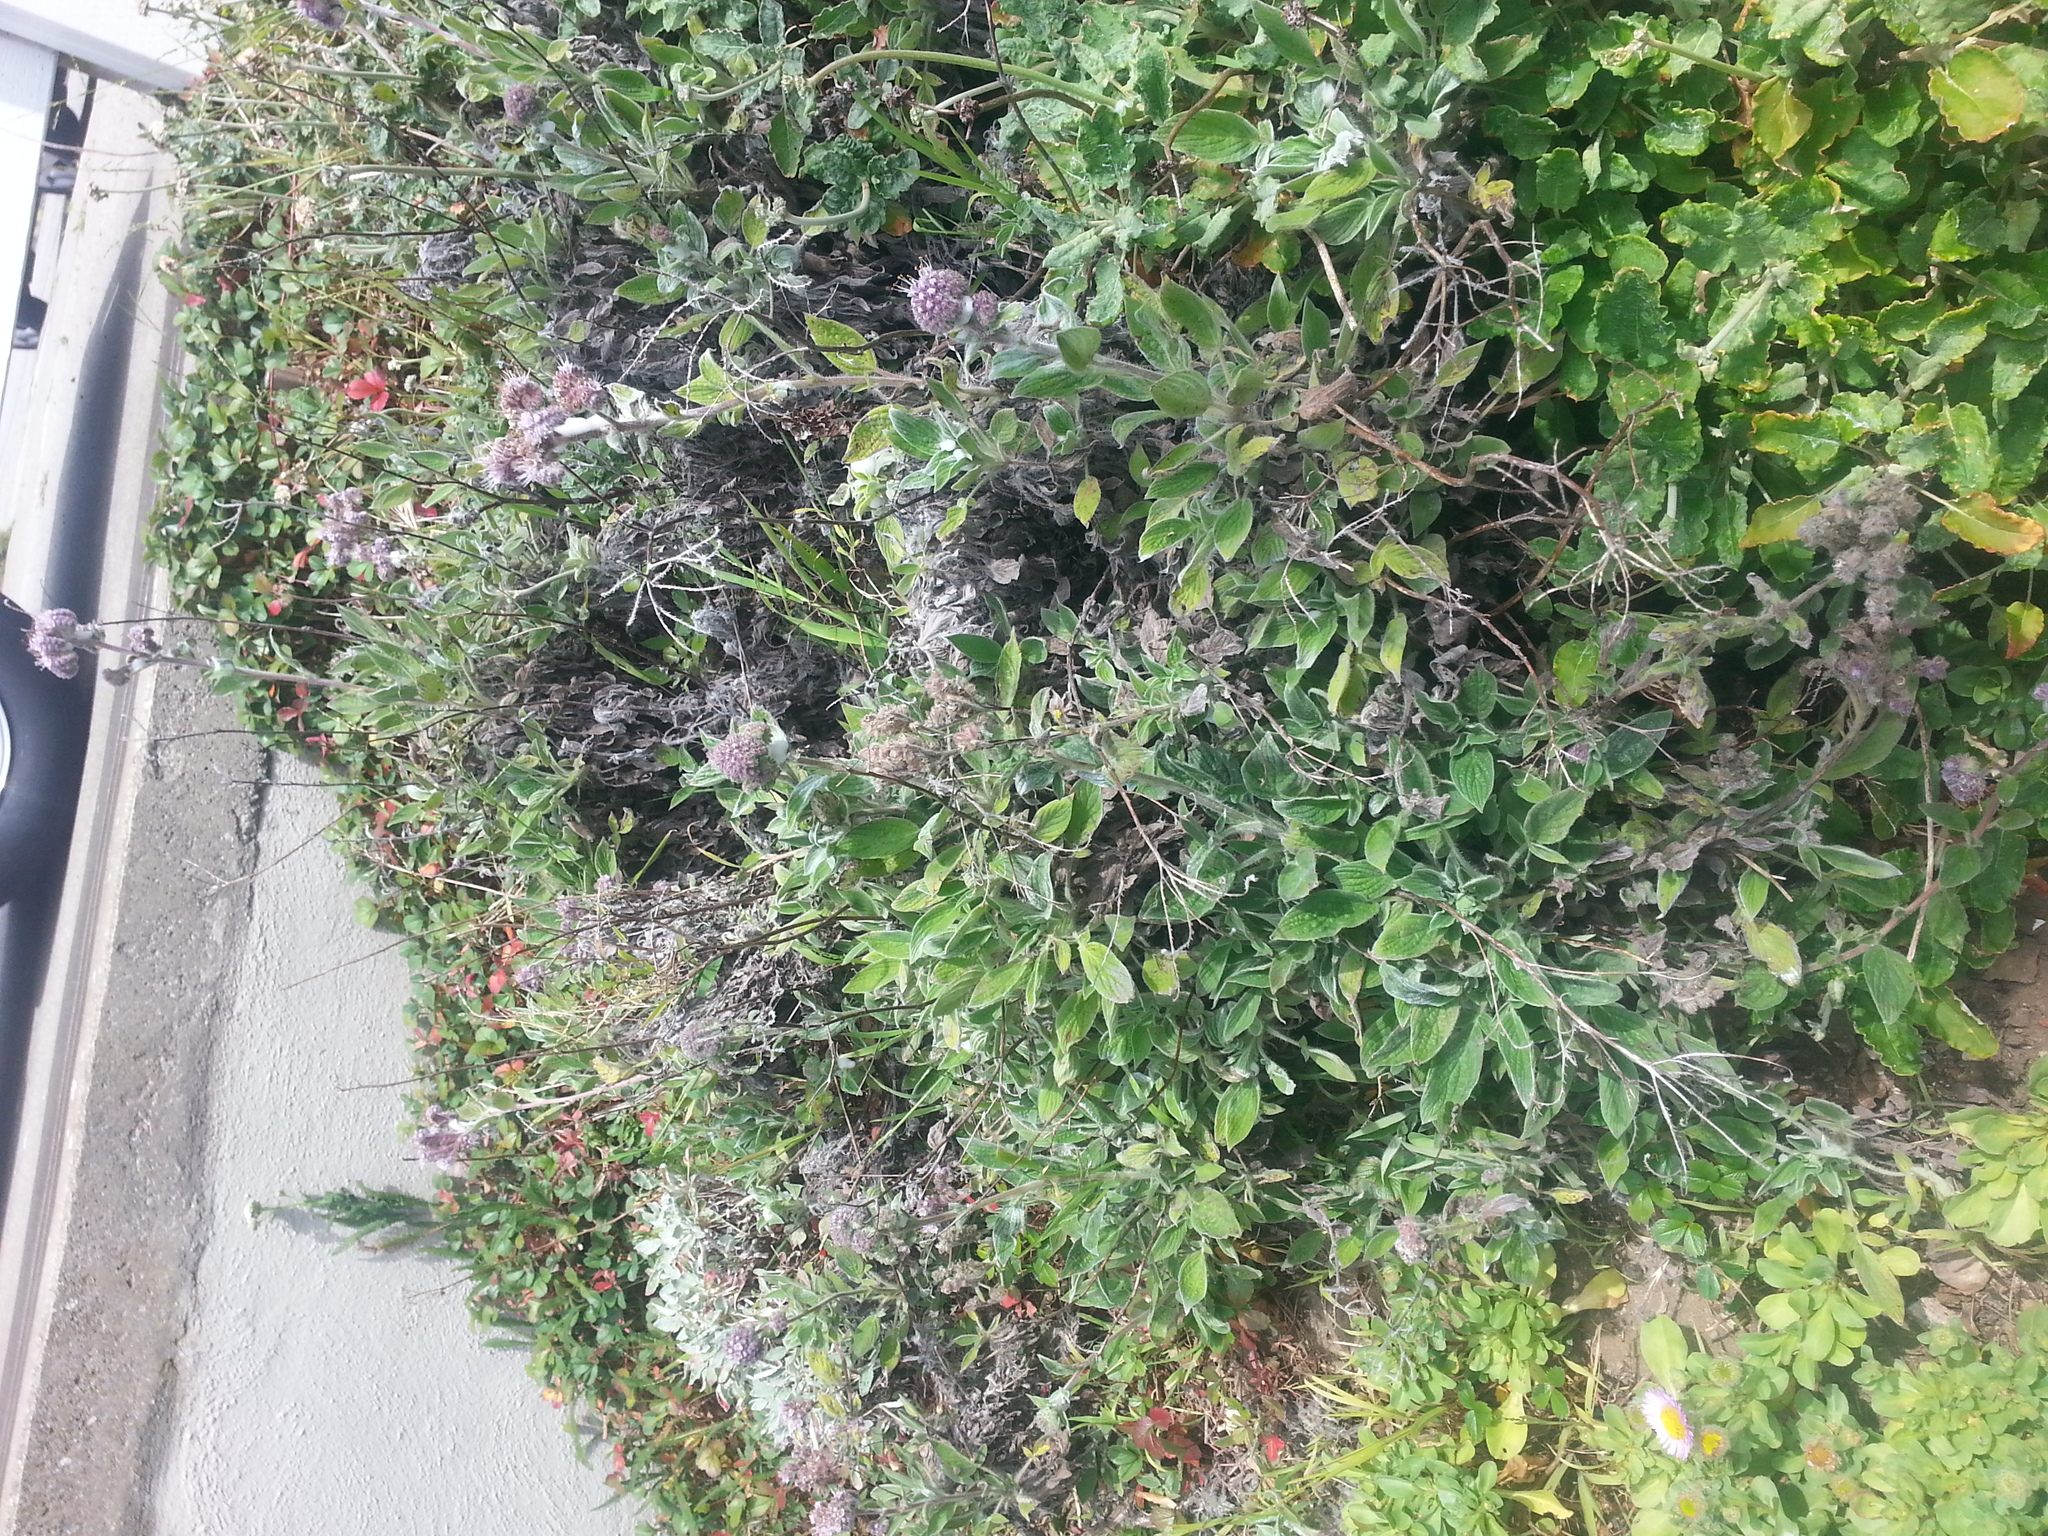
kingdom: Plantae
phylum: Tracheophyta
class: Magnoliopsida
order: Boraginales
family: Hydrophyllaceae
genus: Phacelia
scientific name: Phacelia californica
